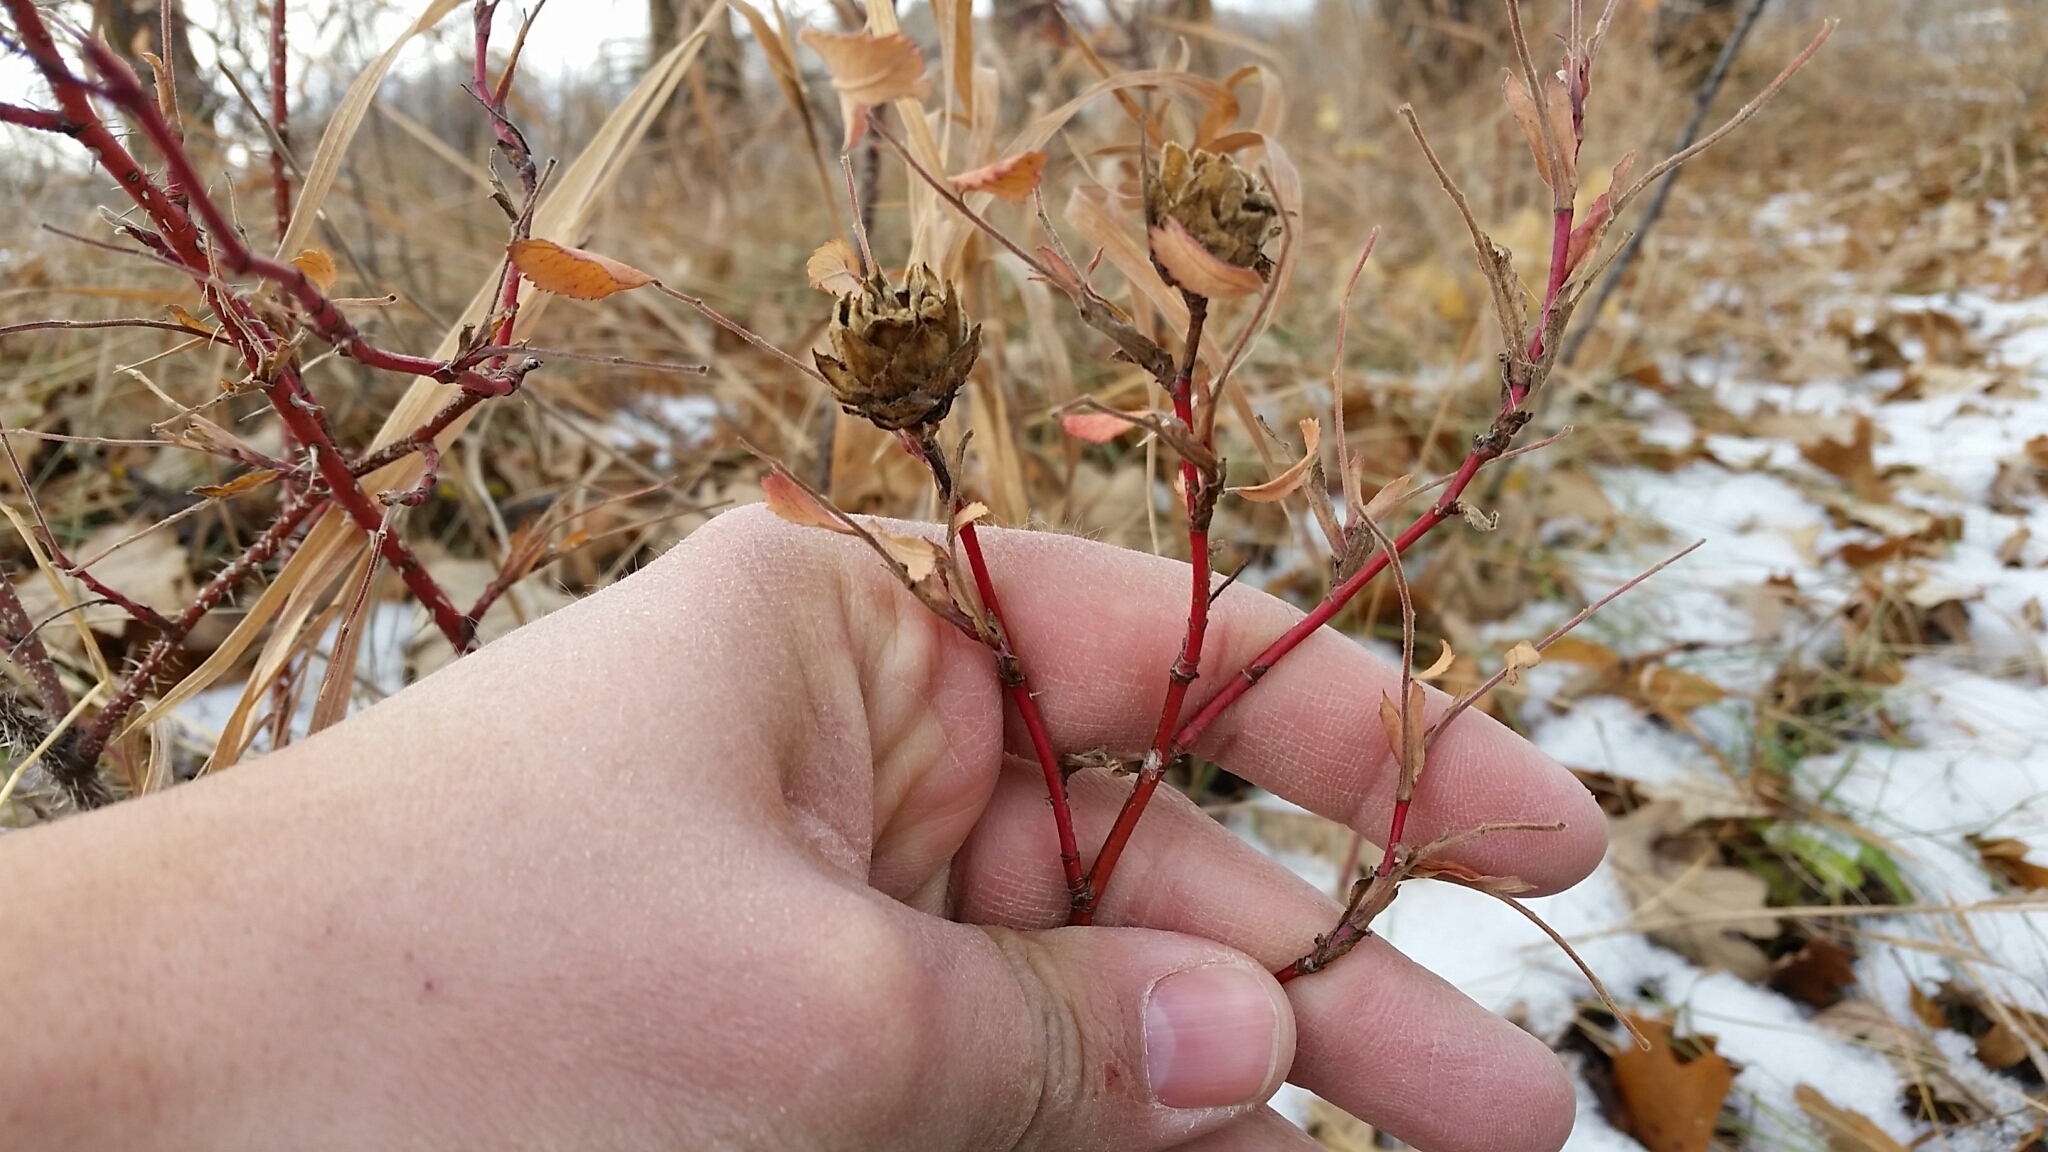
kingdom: Animalia
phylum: Arthropoda
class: Insecta
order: Diptera
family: Cecidomyiidae
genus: Rabdophaga
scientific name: Rabdophaga rosacea
